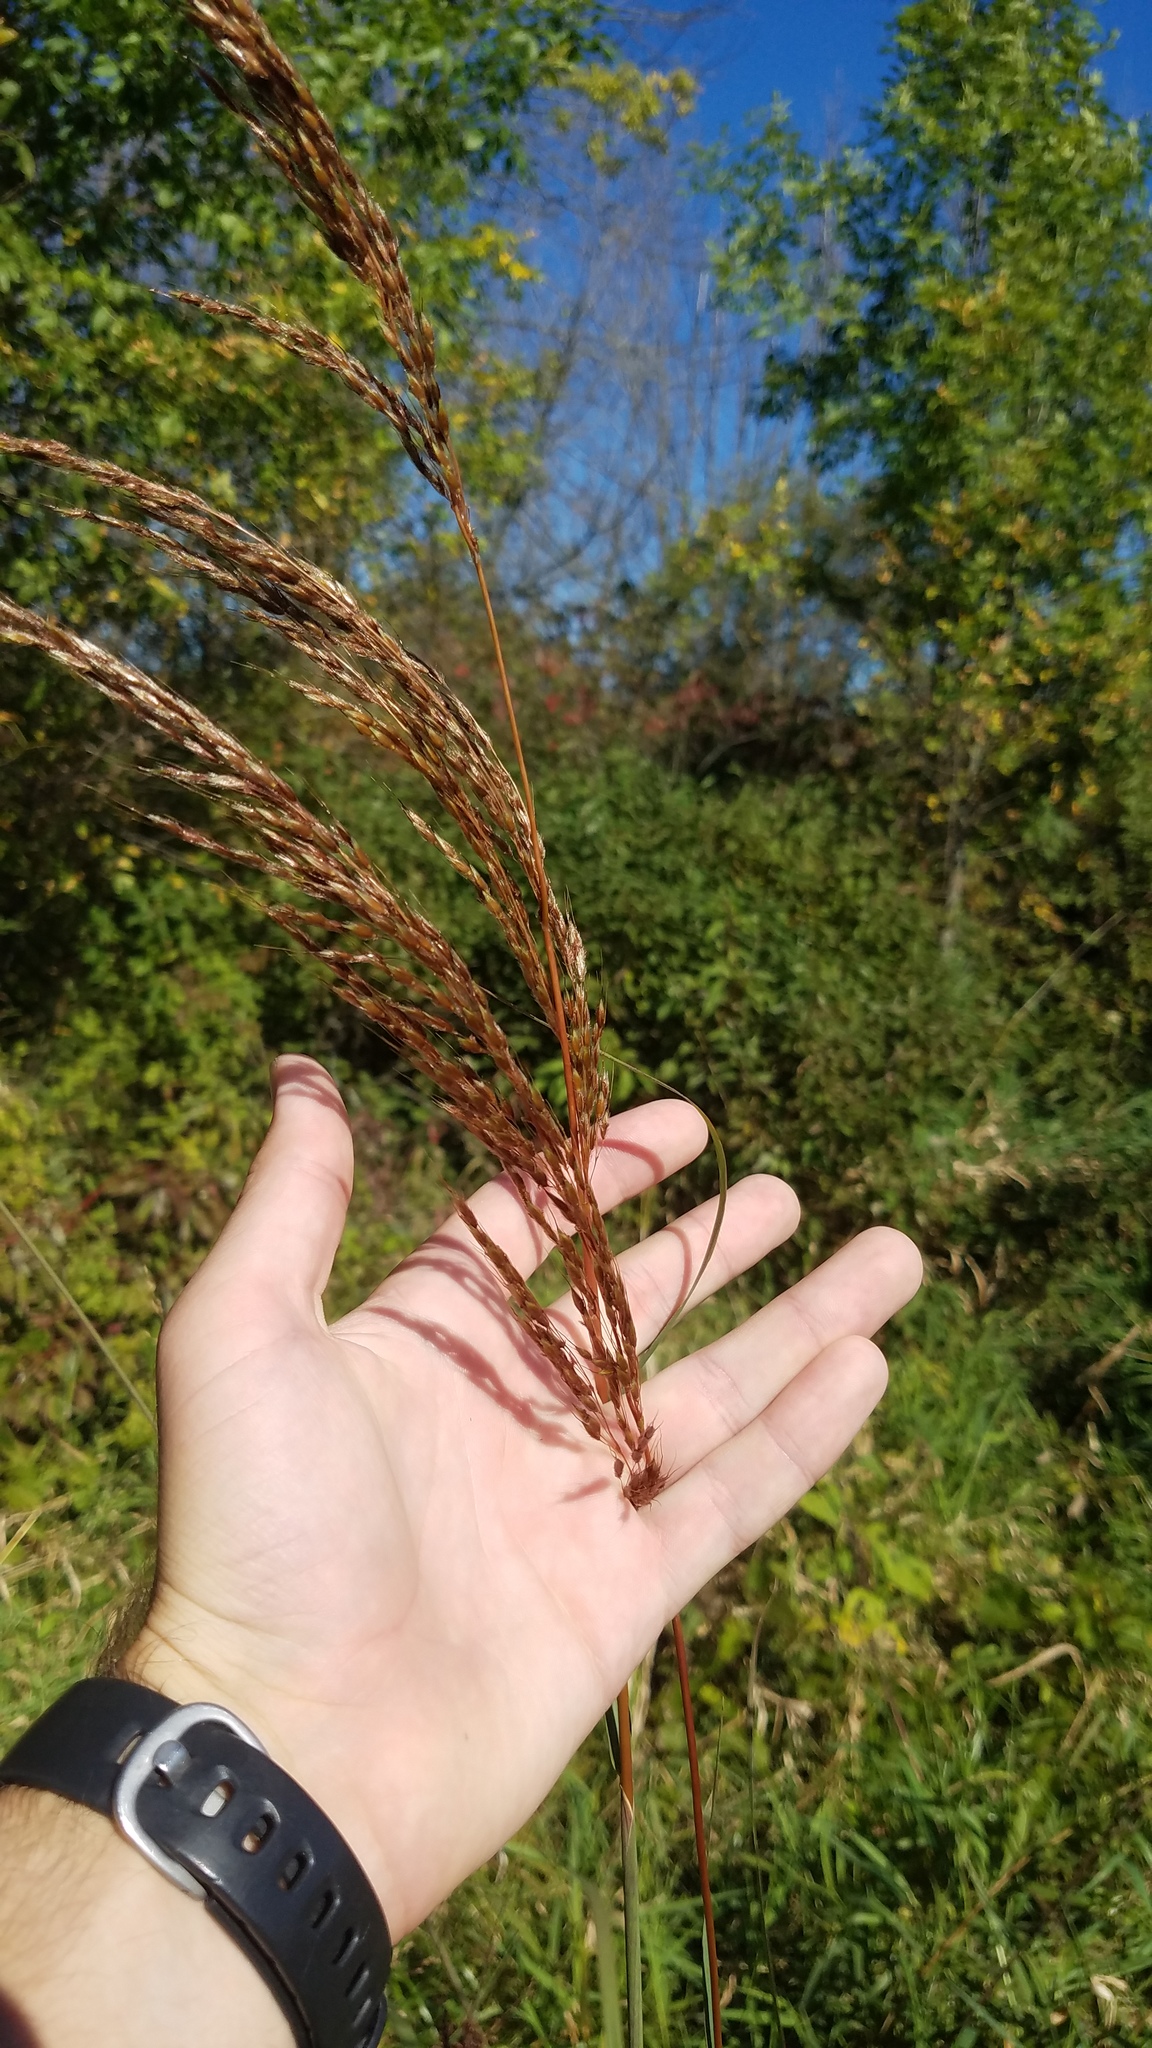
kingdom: Plantae
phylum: Tracheophyta
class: Liliopsida
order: Poales
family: Poaceae
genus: Sorghastrum
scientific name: Sorghastrum nutans
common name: Indian grass
